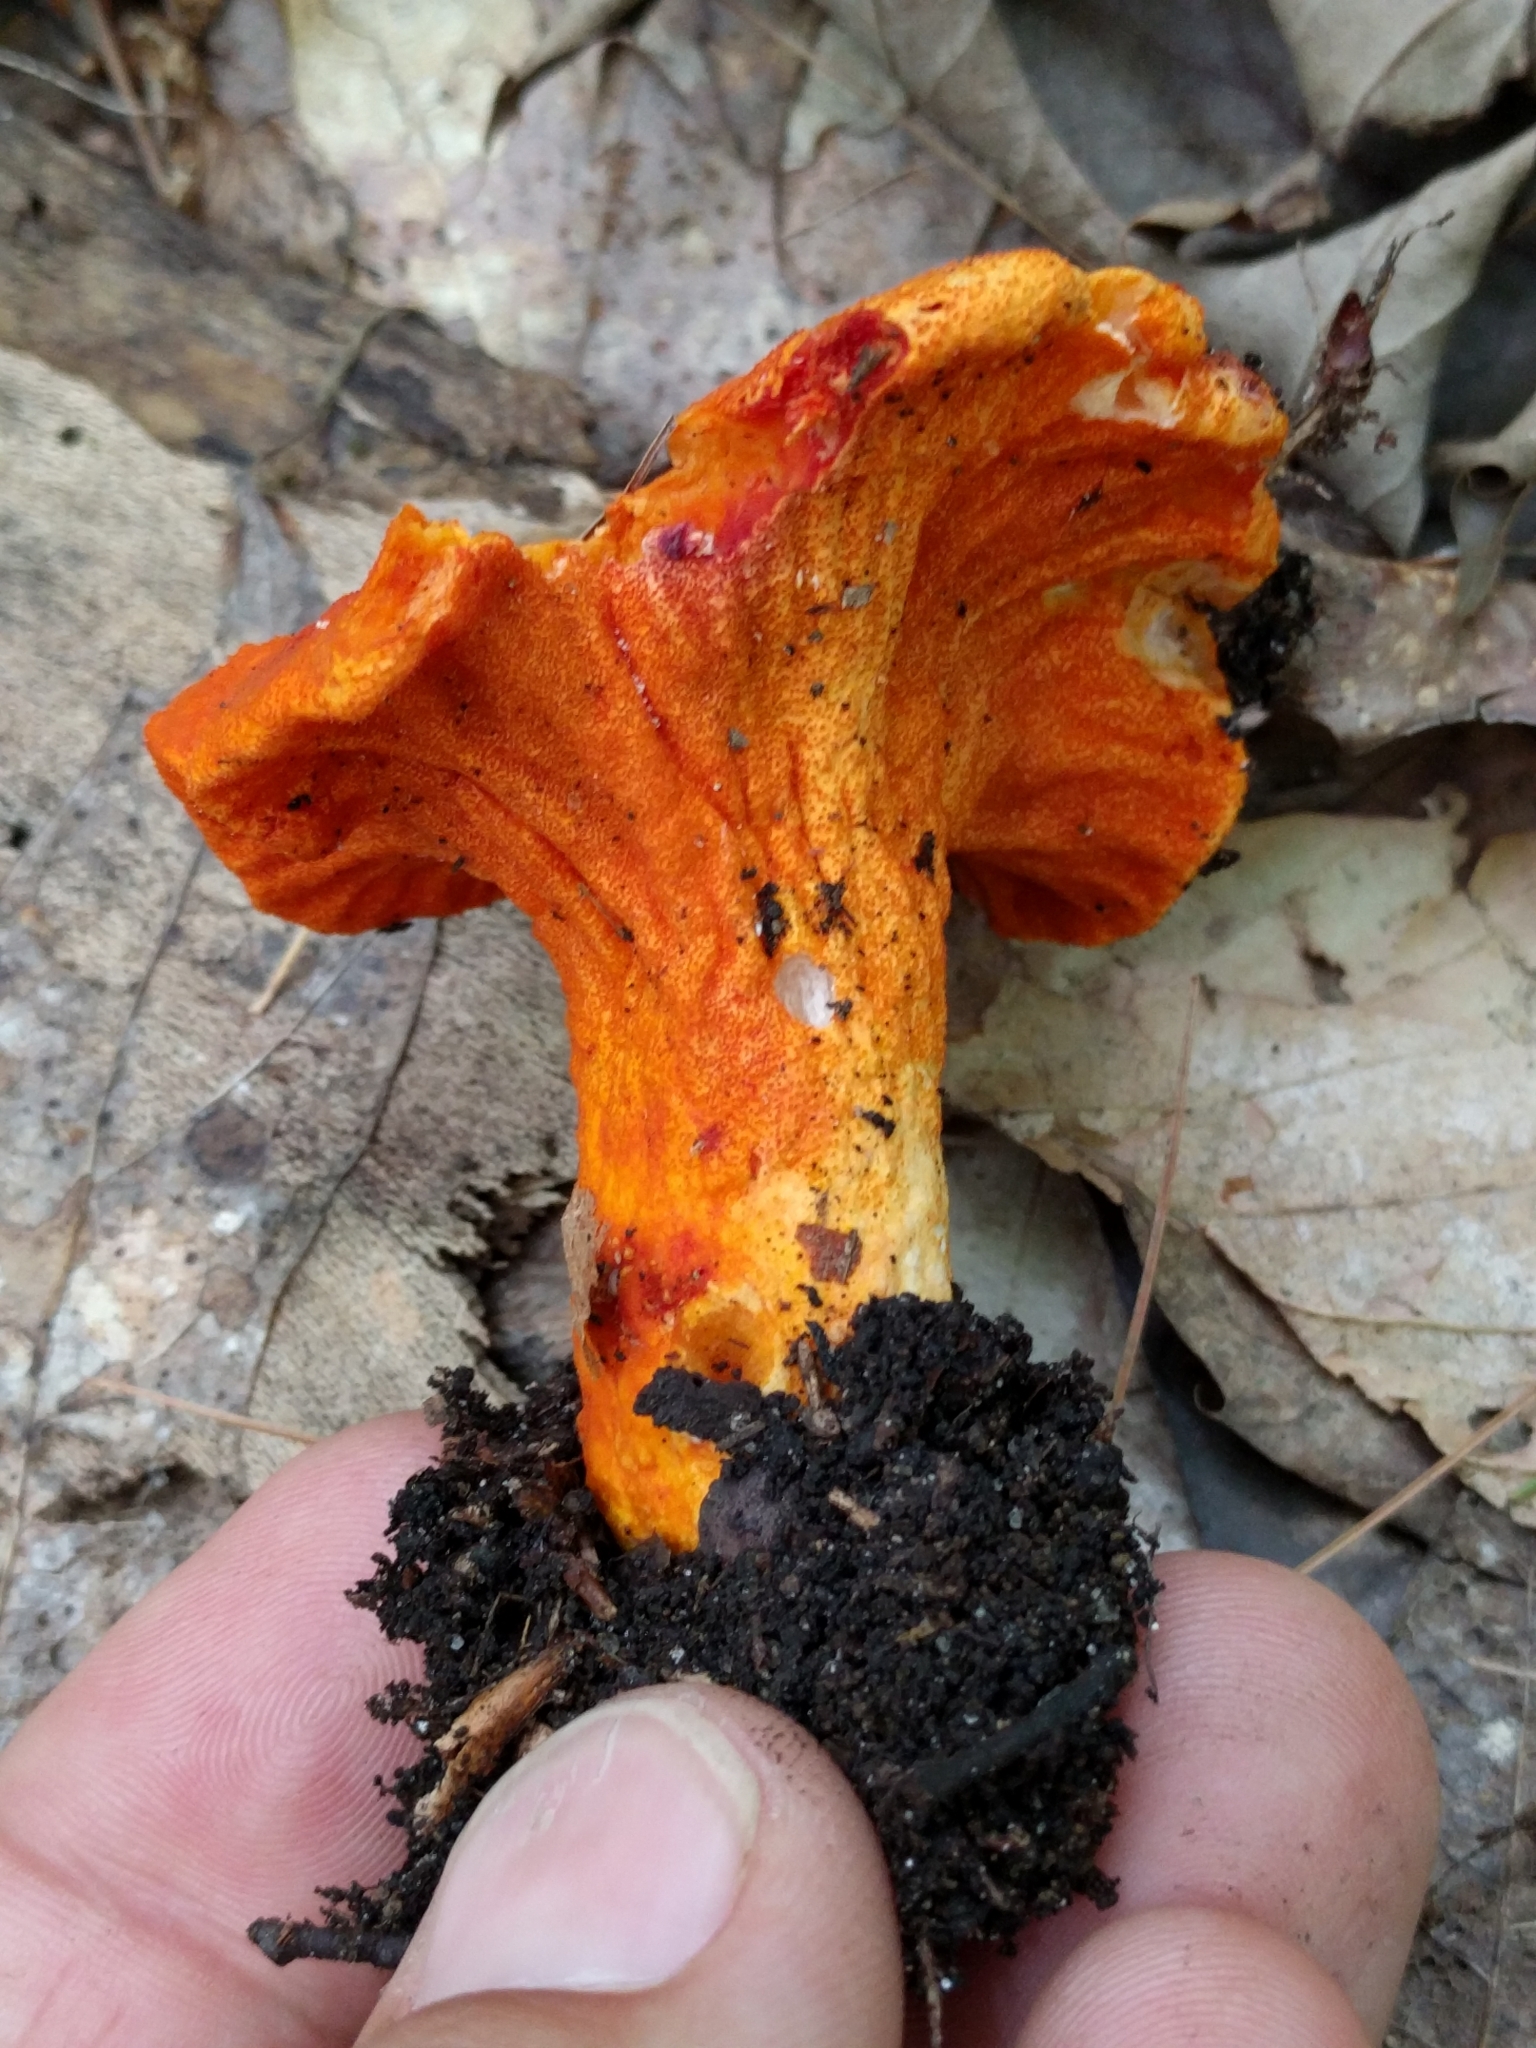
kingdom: Fungi
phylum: Ascomycota
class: Sordariomycetes
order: Hypocreales
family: Hypocreaceae
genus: Hypomyces
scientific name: Hypomyces lactifluorum
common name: Lobster mushroom
